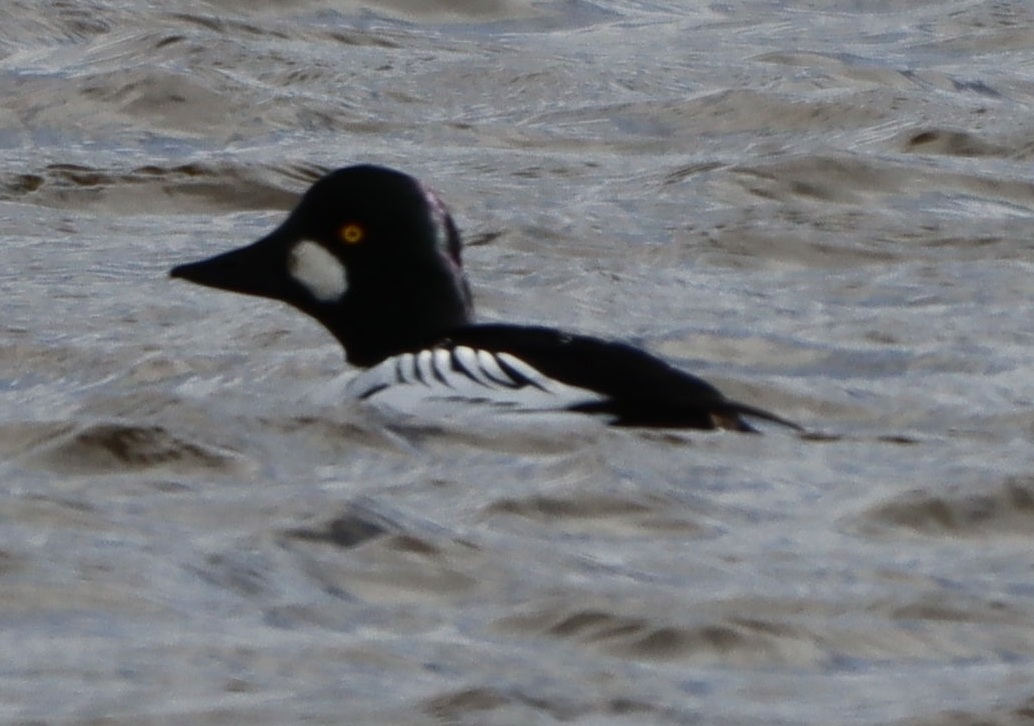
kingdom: Animalia
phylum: Chordata
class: Aves
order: Anseriformes
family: Anatidae
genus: Bucephala
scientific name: Bucephala clangula
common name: Common goldeneye
